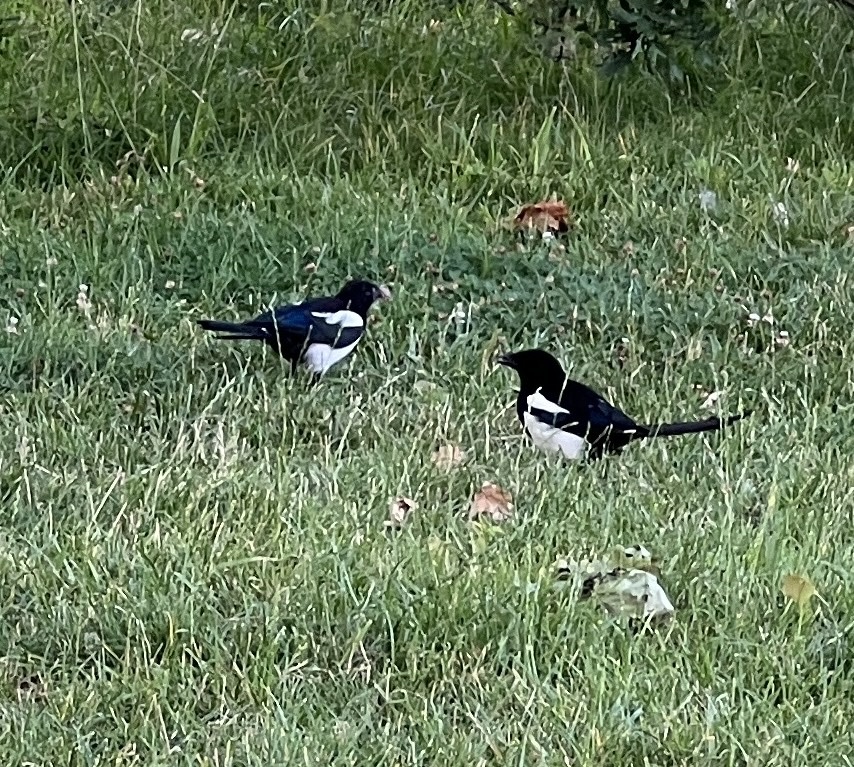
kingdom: Animalia
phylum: Chordata
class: Aves
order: Passeriformes
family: Corvidae
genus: Pica
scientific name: Pica pica
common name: Eurasian magpie
